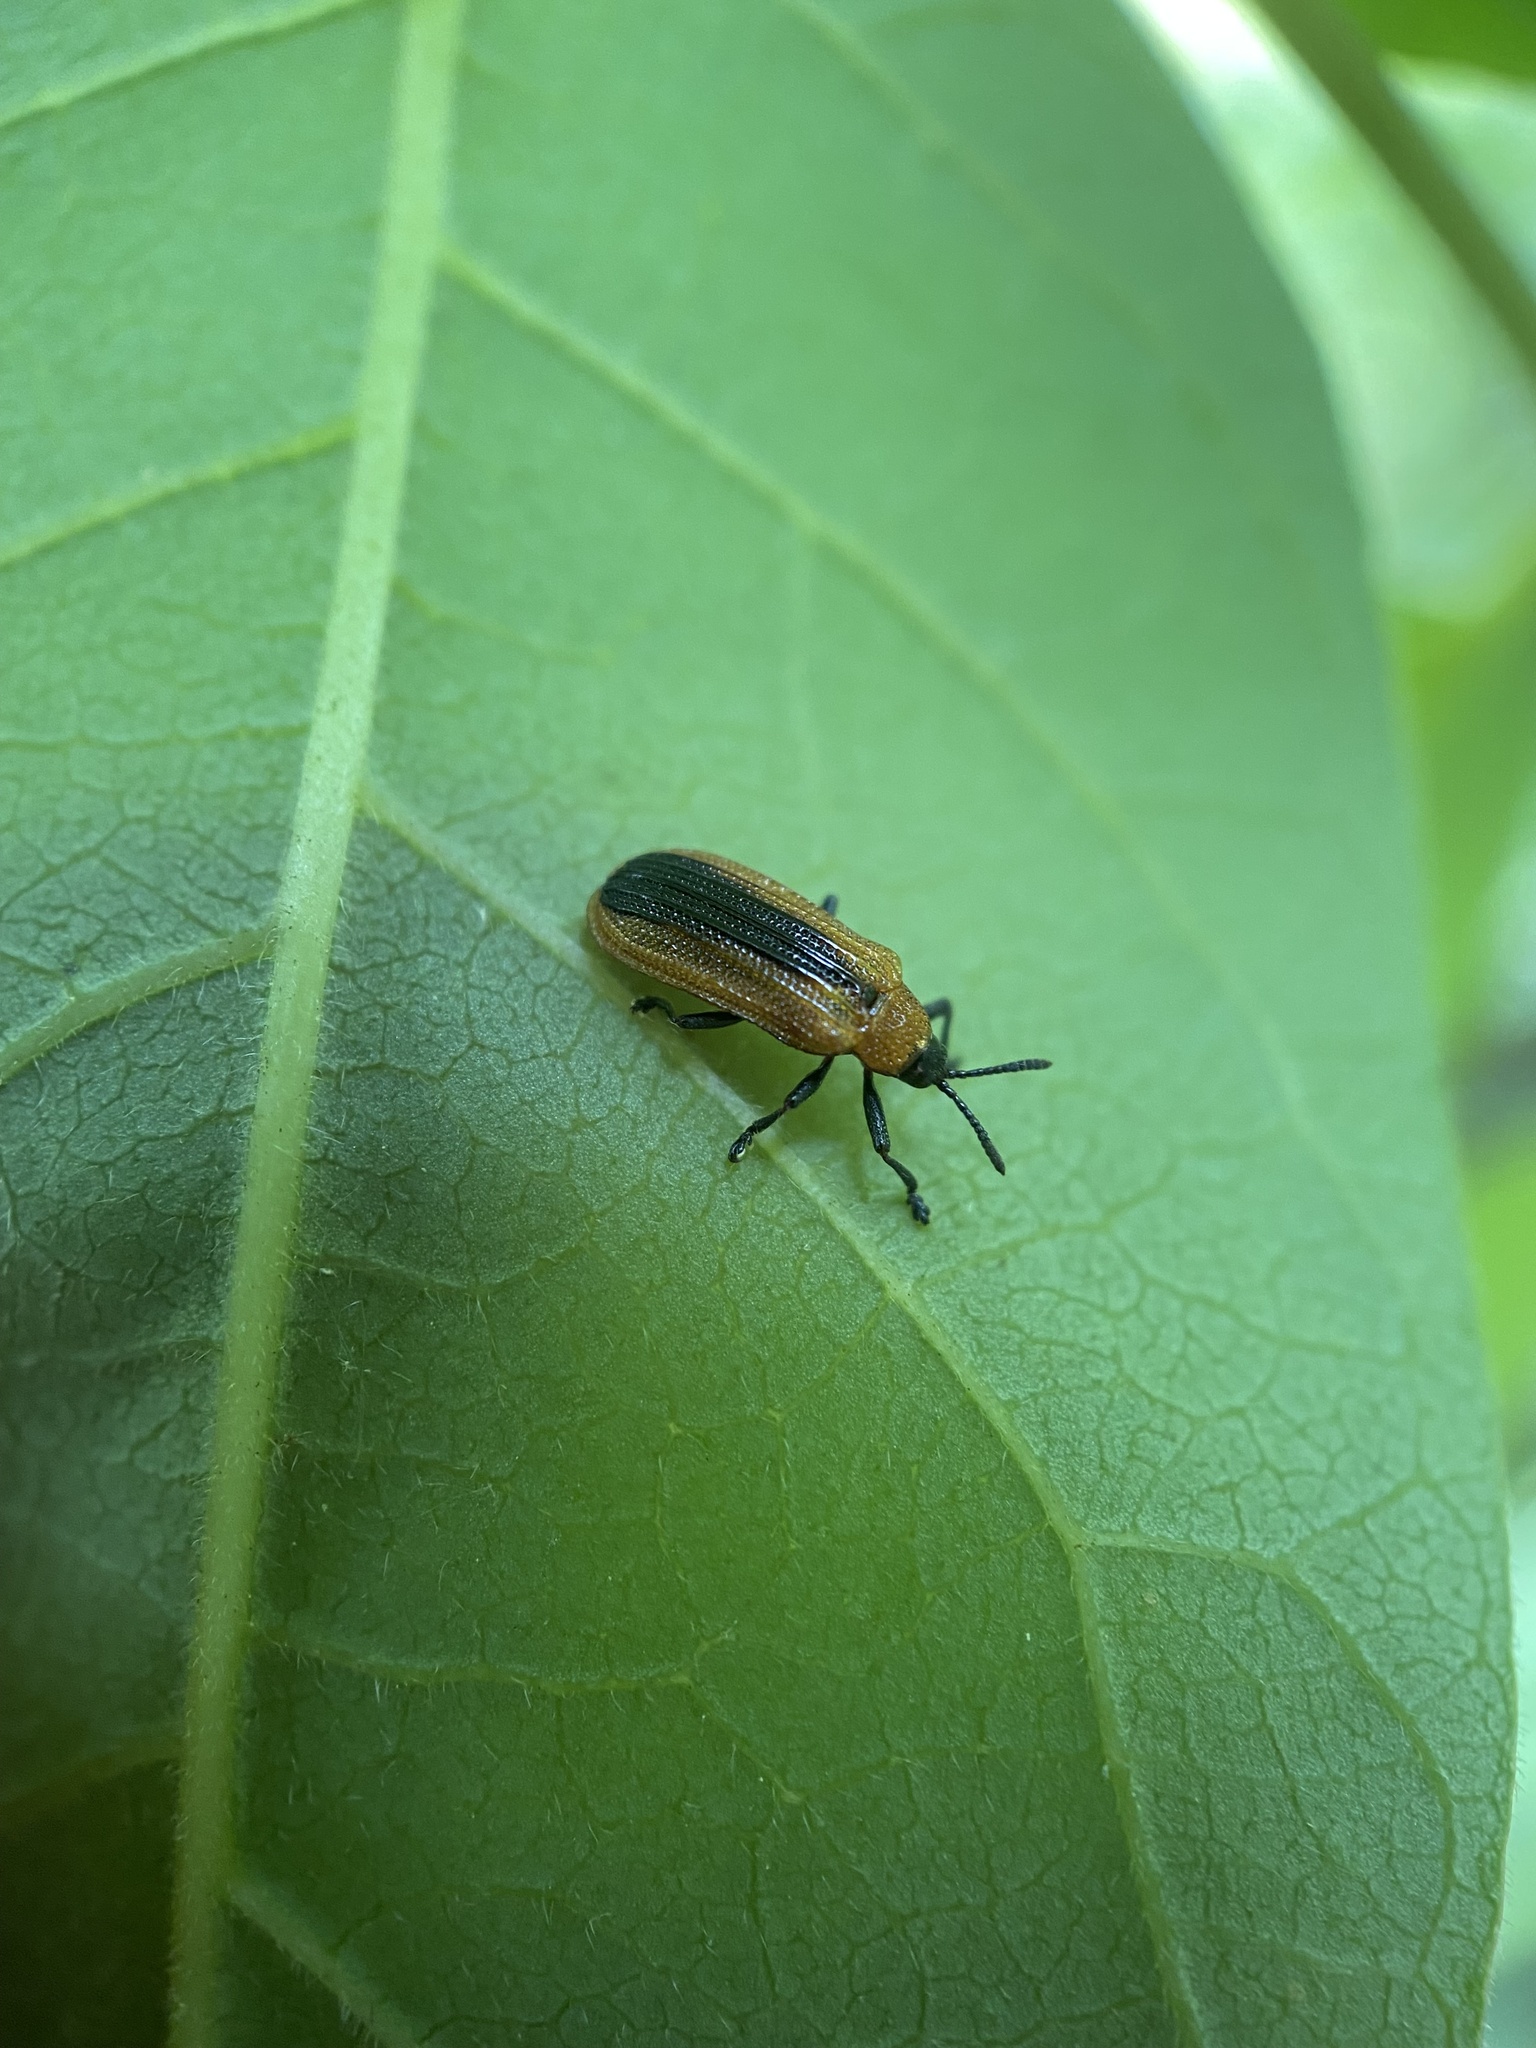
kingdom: Animalia
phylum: Arthropoda
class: Insecta
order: Coleoptera
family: Chrysomelidae
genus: Odontota
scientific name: Odontota dorsalis
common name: Locust leaf-miner beetle
